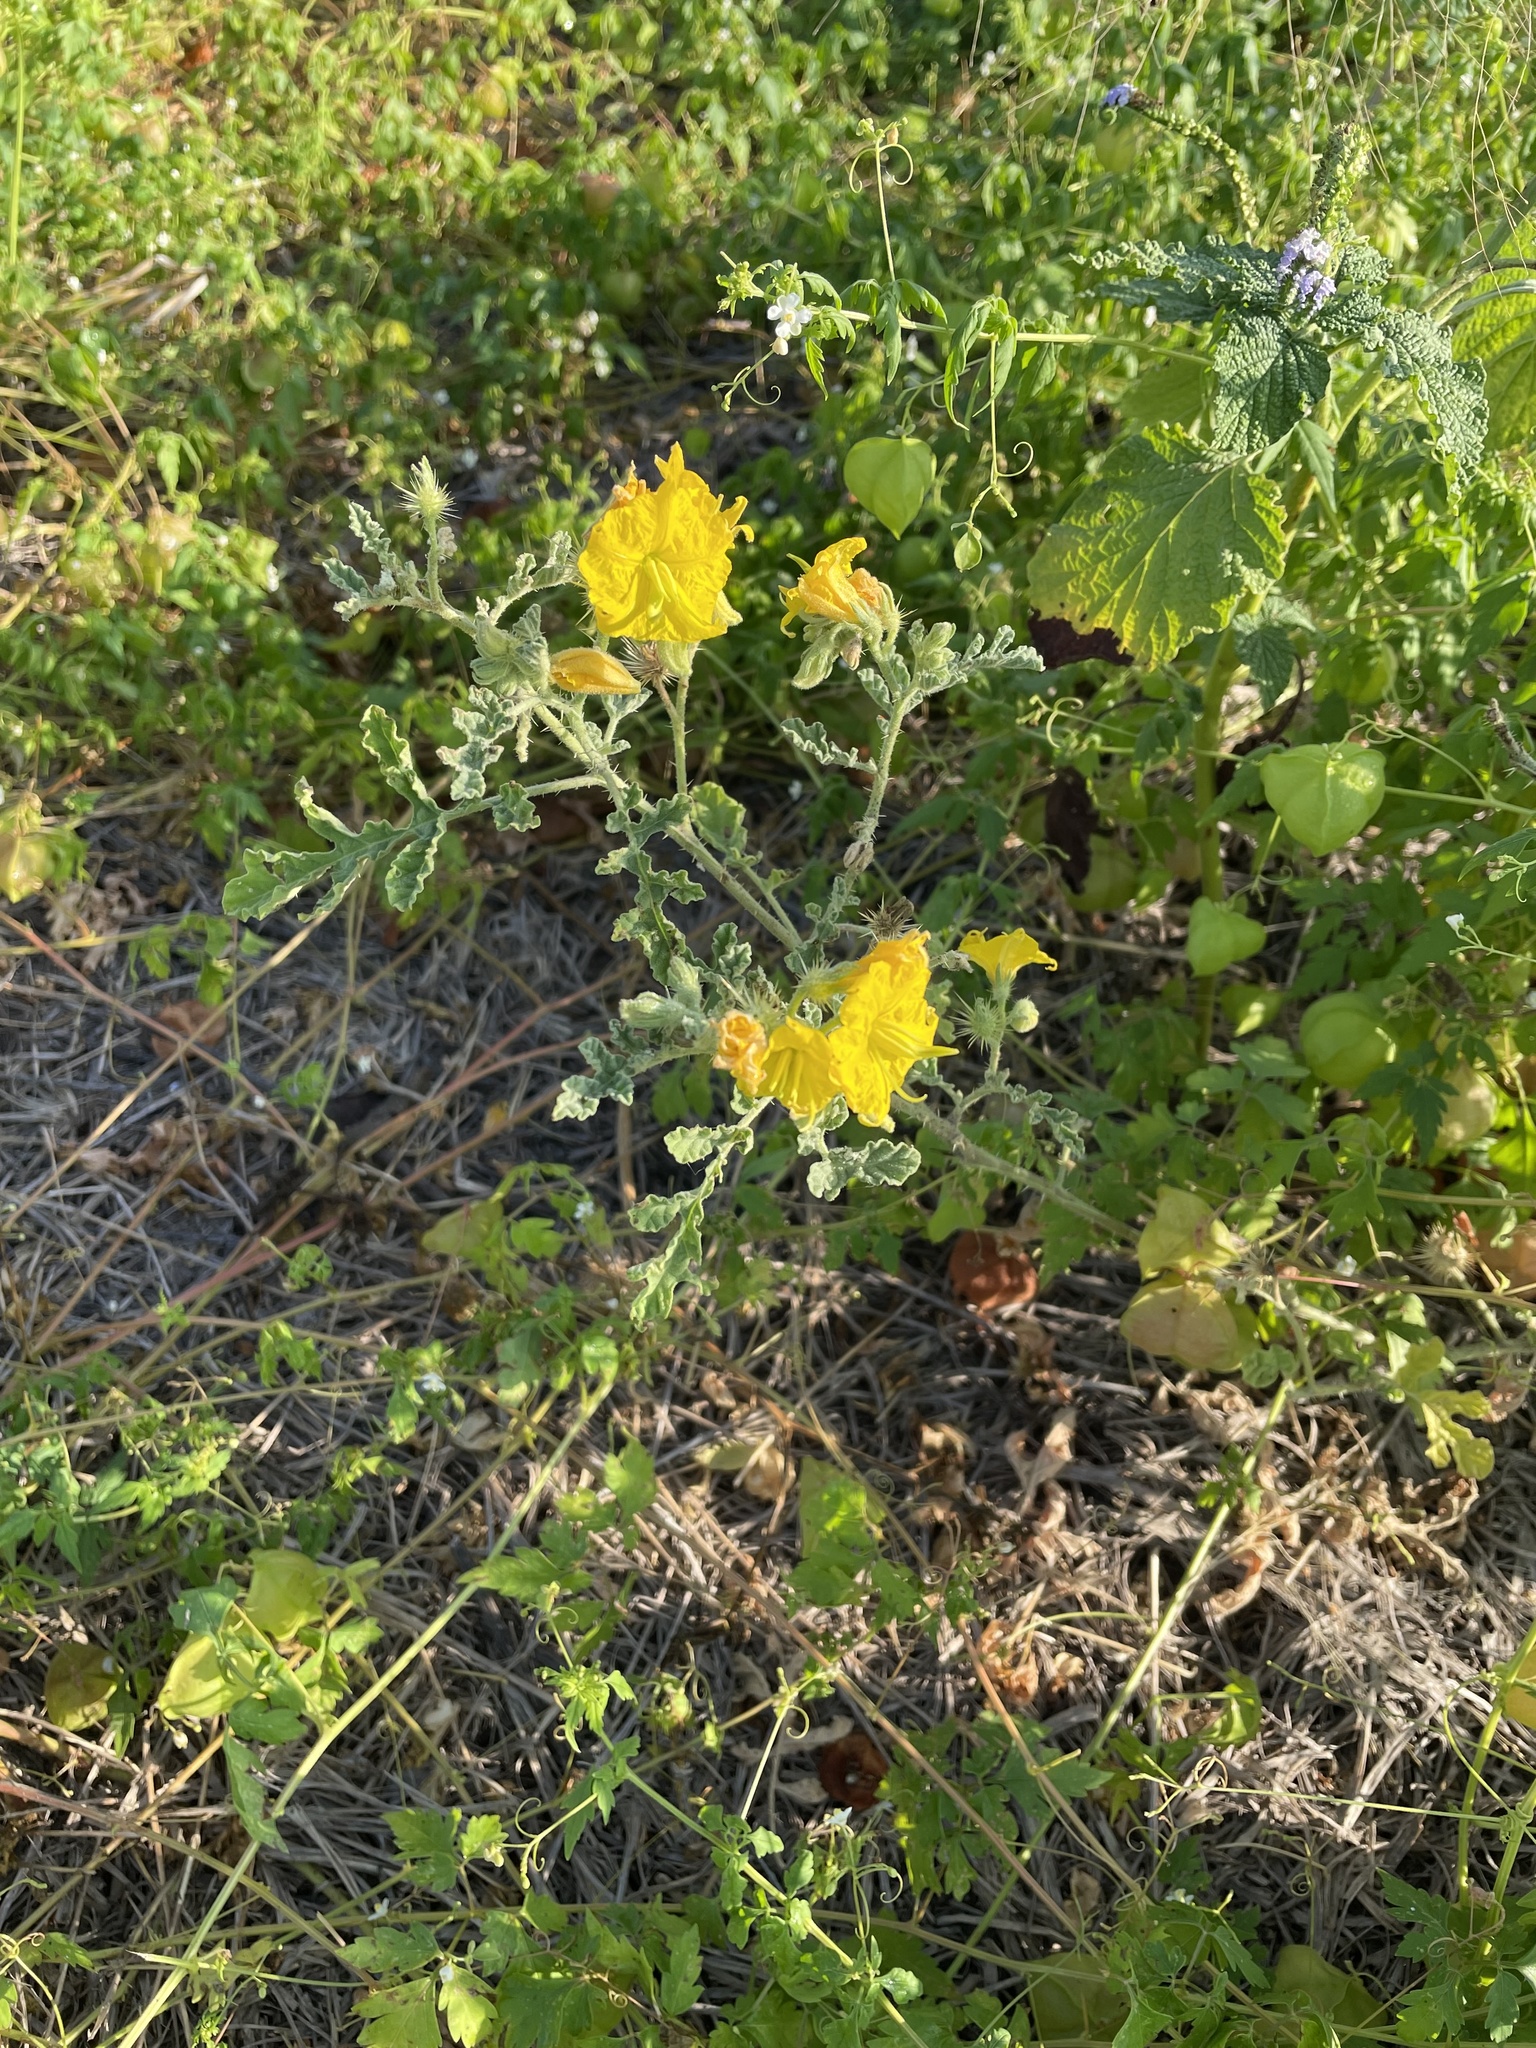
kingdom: Plantae
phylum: Tracheophyta
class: Magnoliopsida
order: Solanales
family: Solanaceae
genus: Solanum
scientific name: Solanum angustifolium
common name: Buffalobur nightshade
